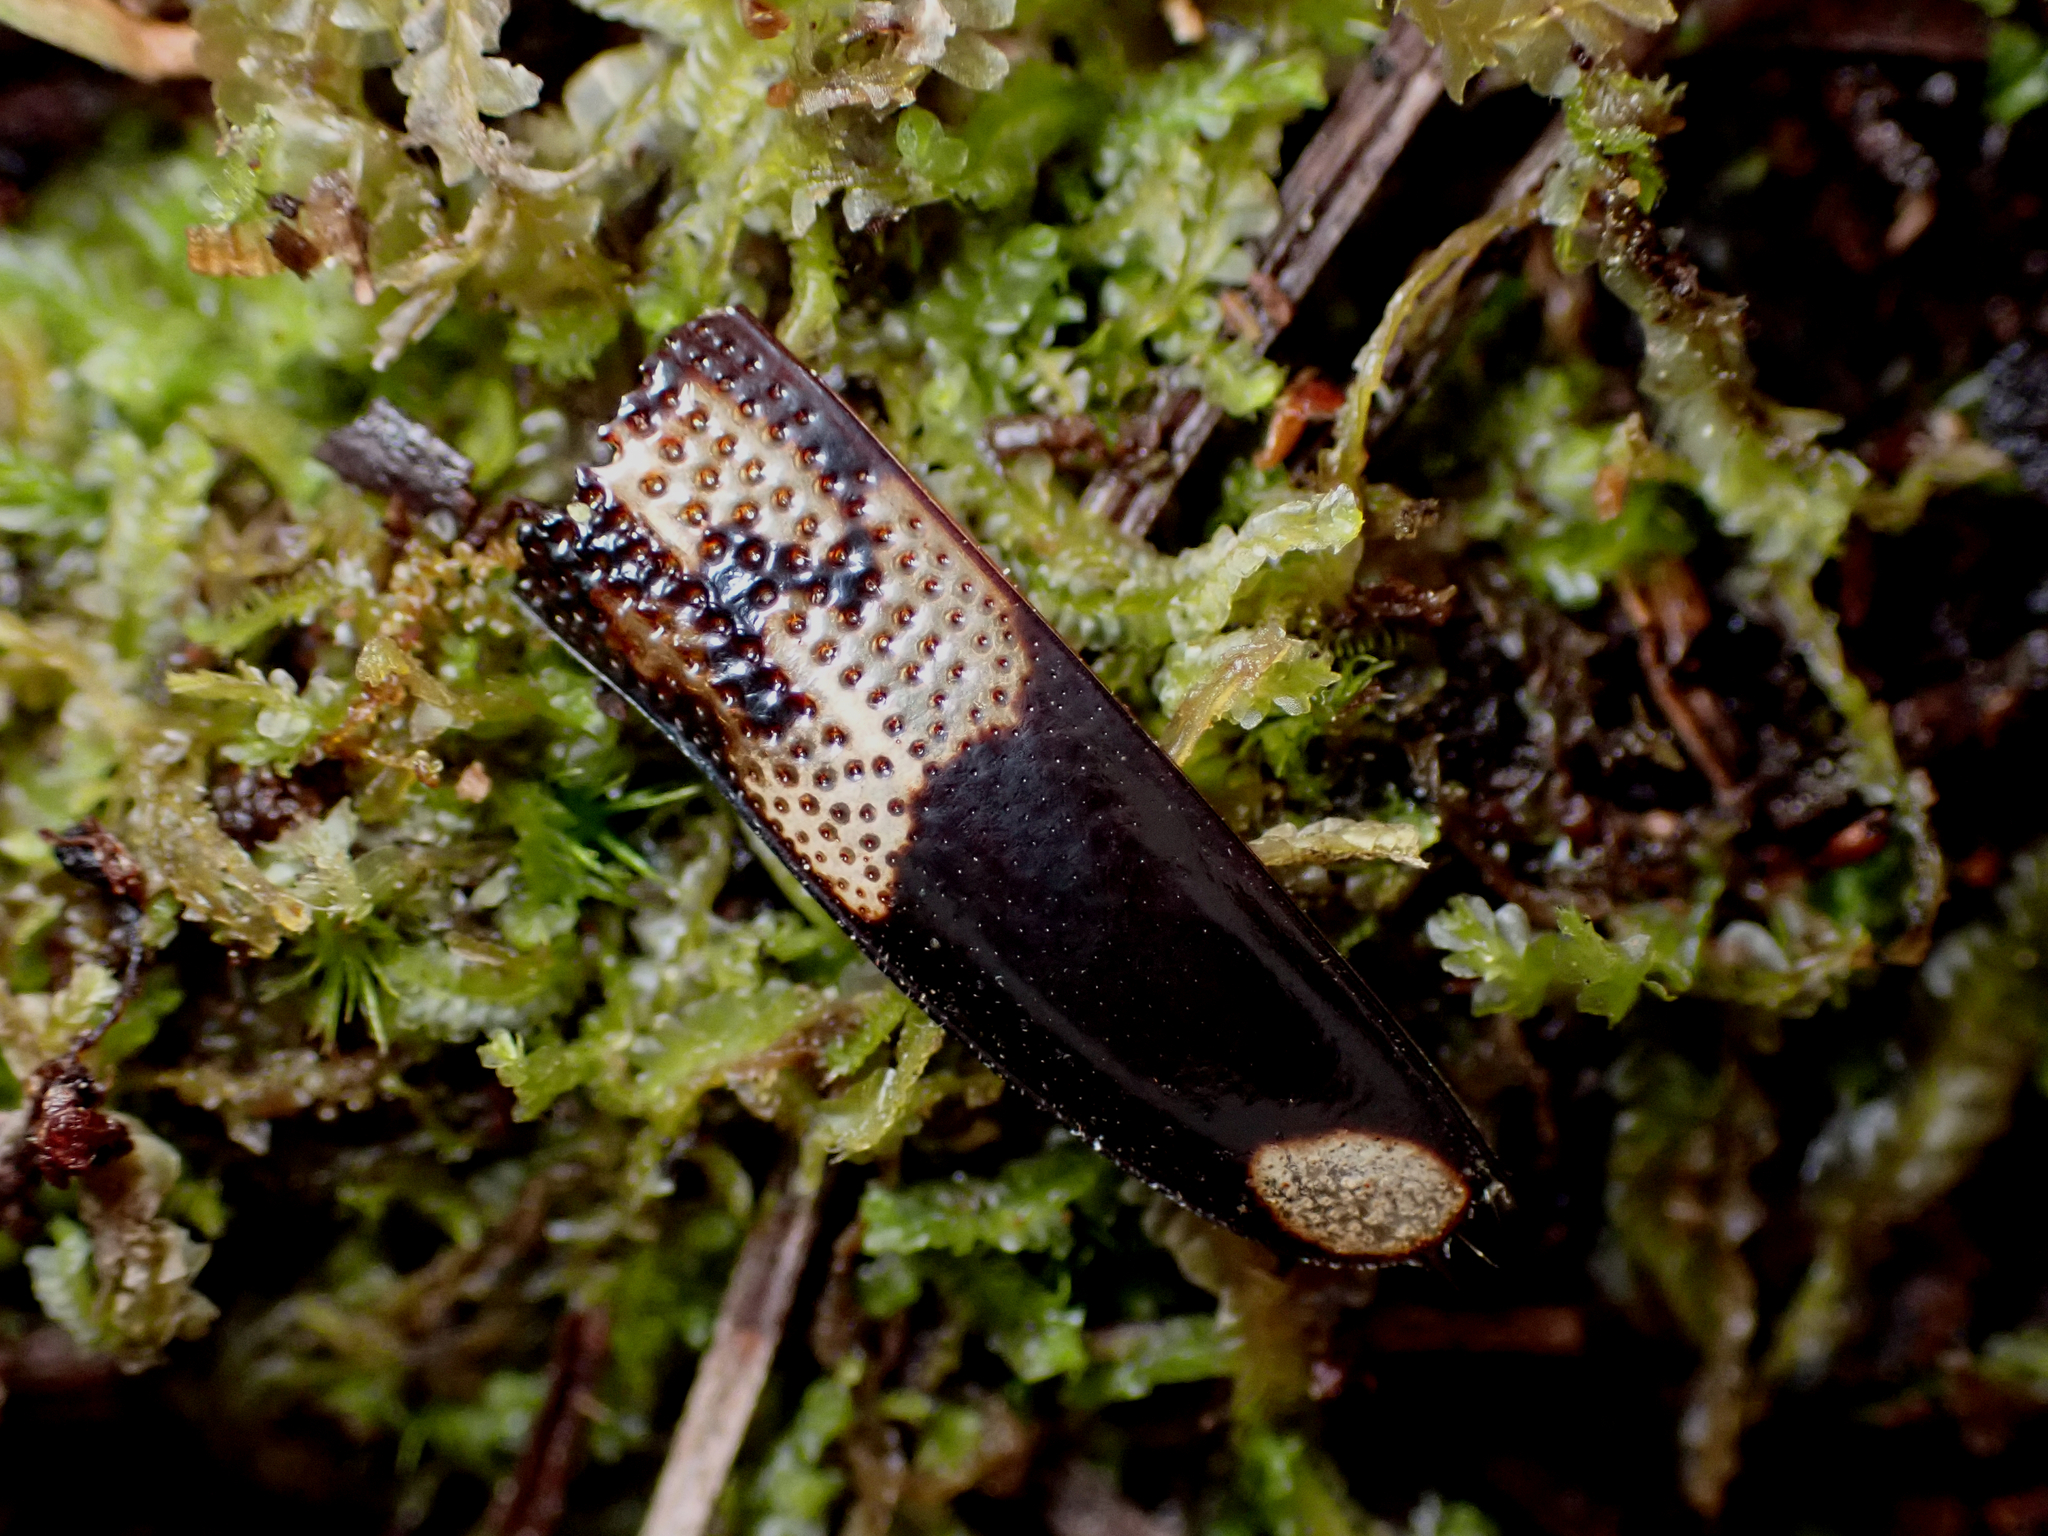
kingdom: Animalia
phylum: Arthropoda
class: Insecta
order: Coleoptera
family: Cerambycidae
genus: Phoracantha
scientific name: Phoracantha semipunctata
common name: Eucalyptus longhorn borer
